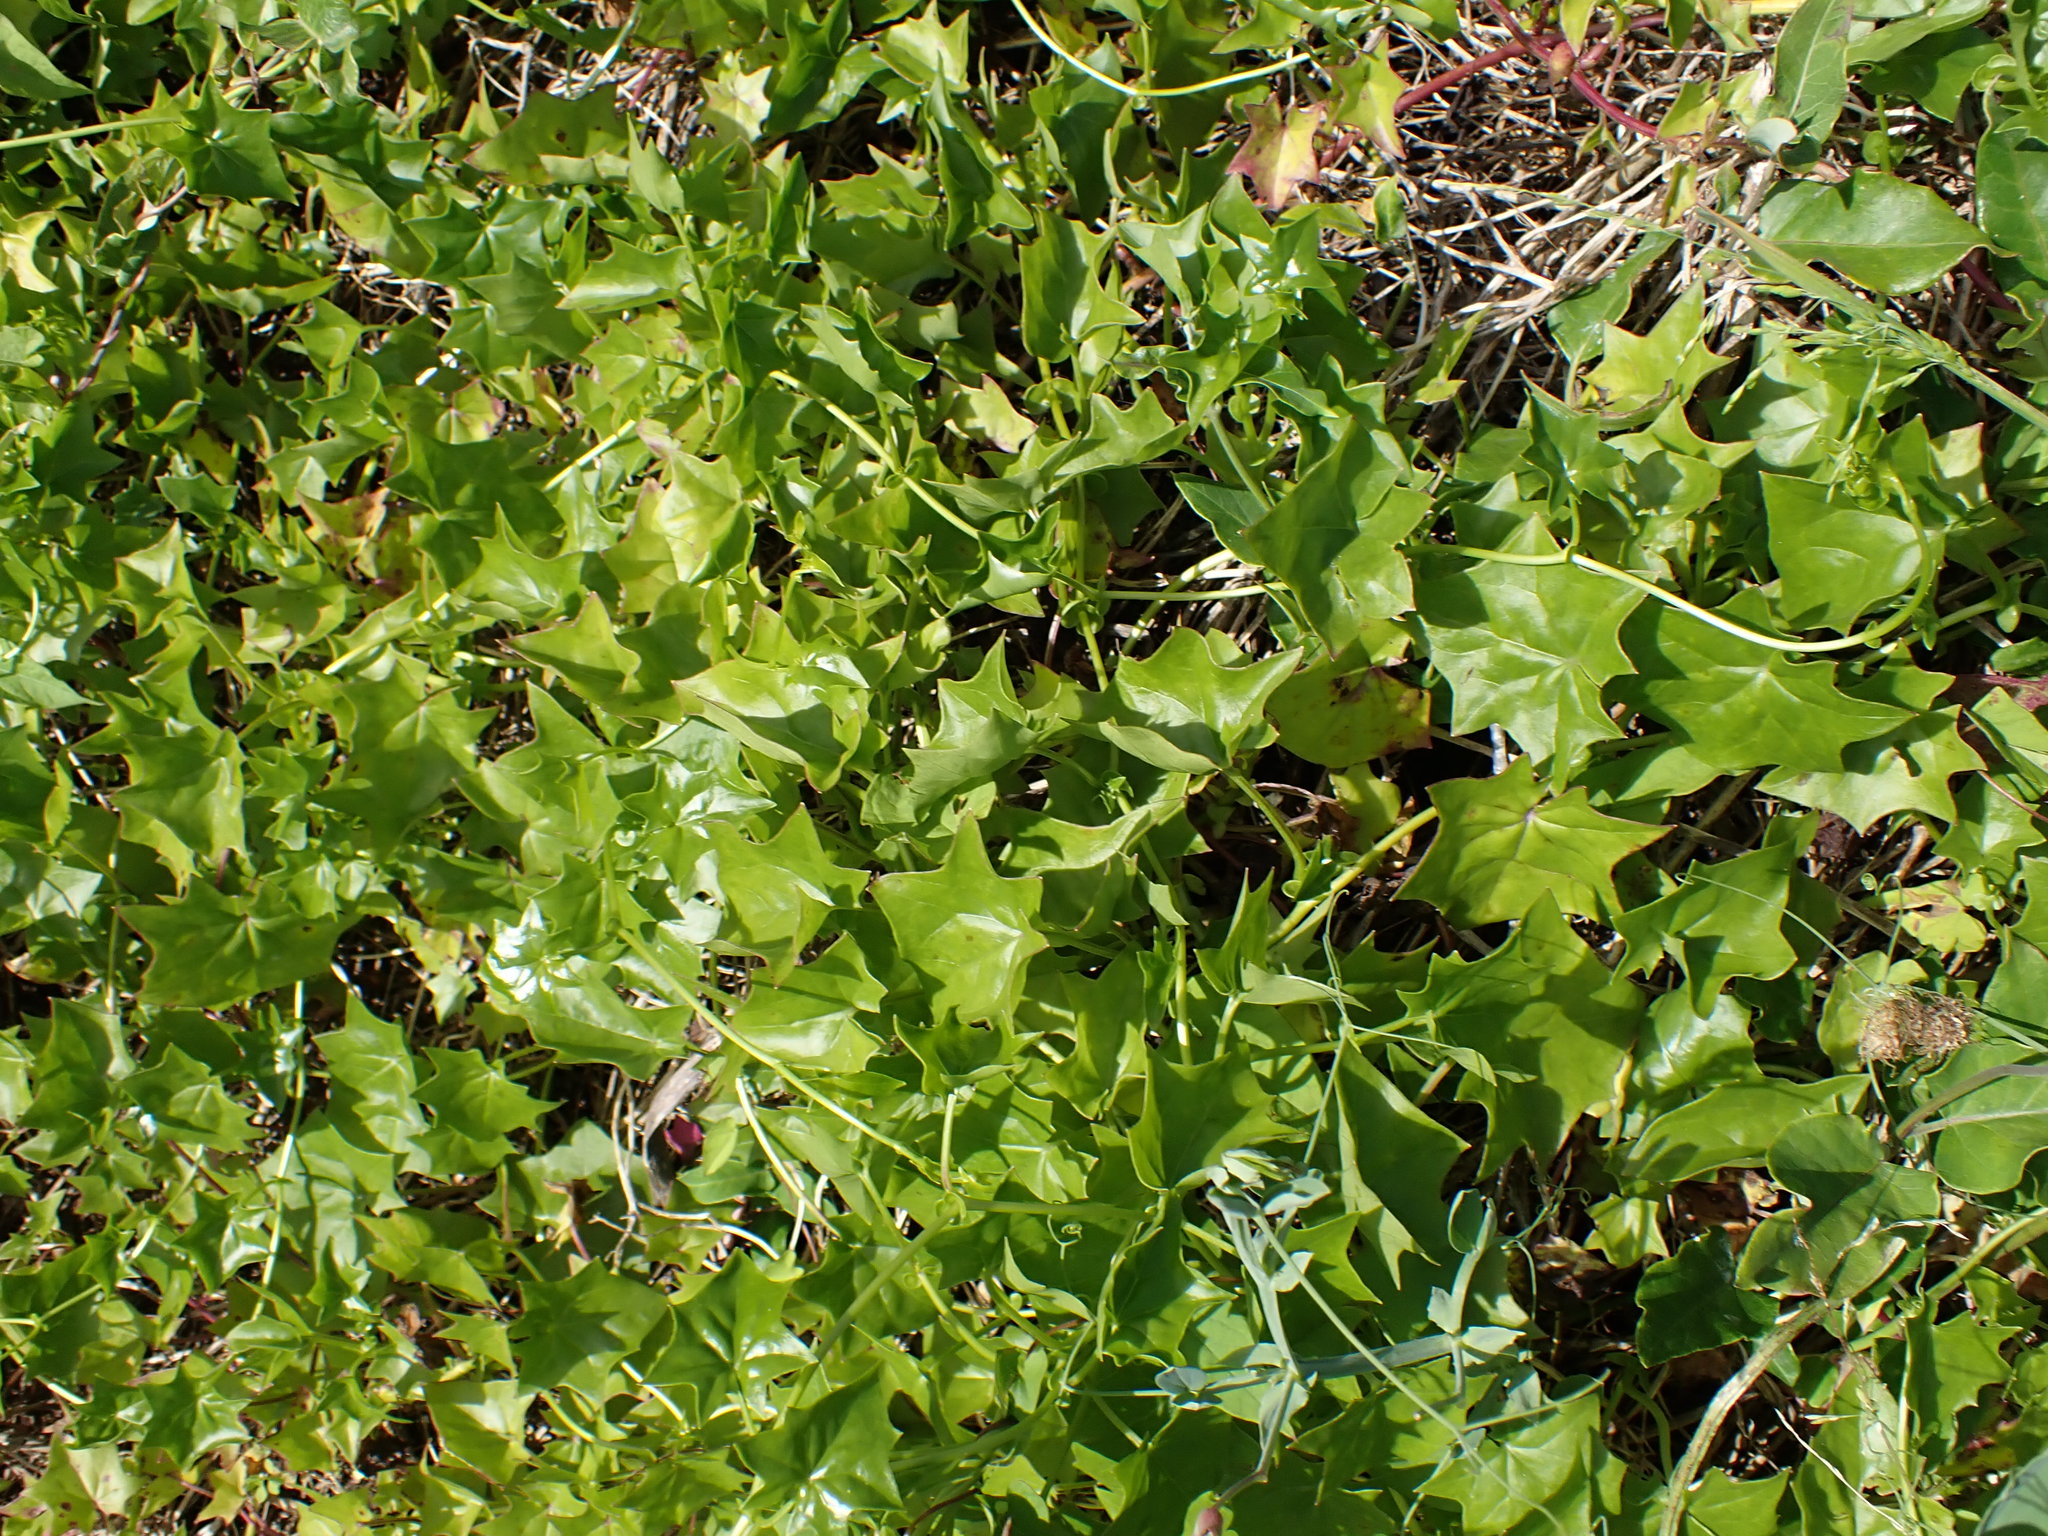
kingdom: Plantae
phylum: Tracheophyta
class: Magnoliopsida
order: Asterales
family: Asteraceae
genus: Delairea
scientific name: Delairea odorata
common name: Cape-ivy
